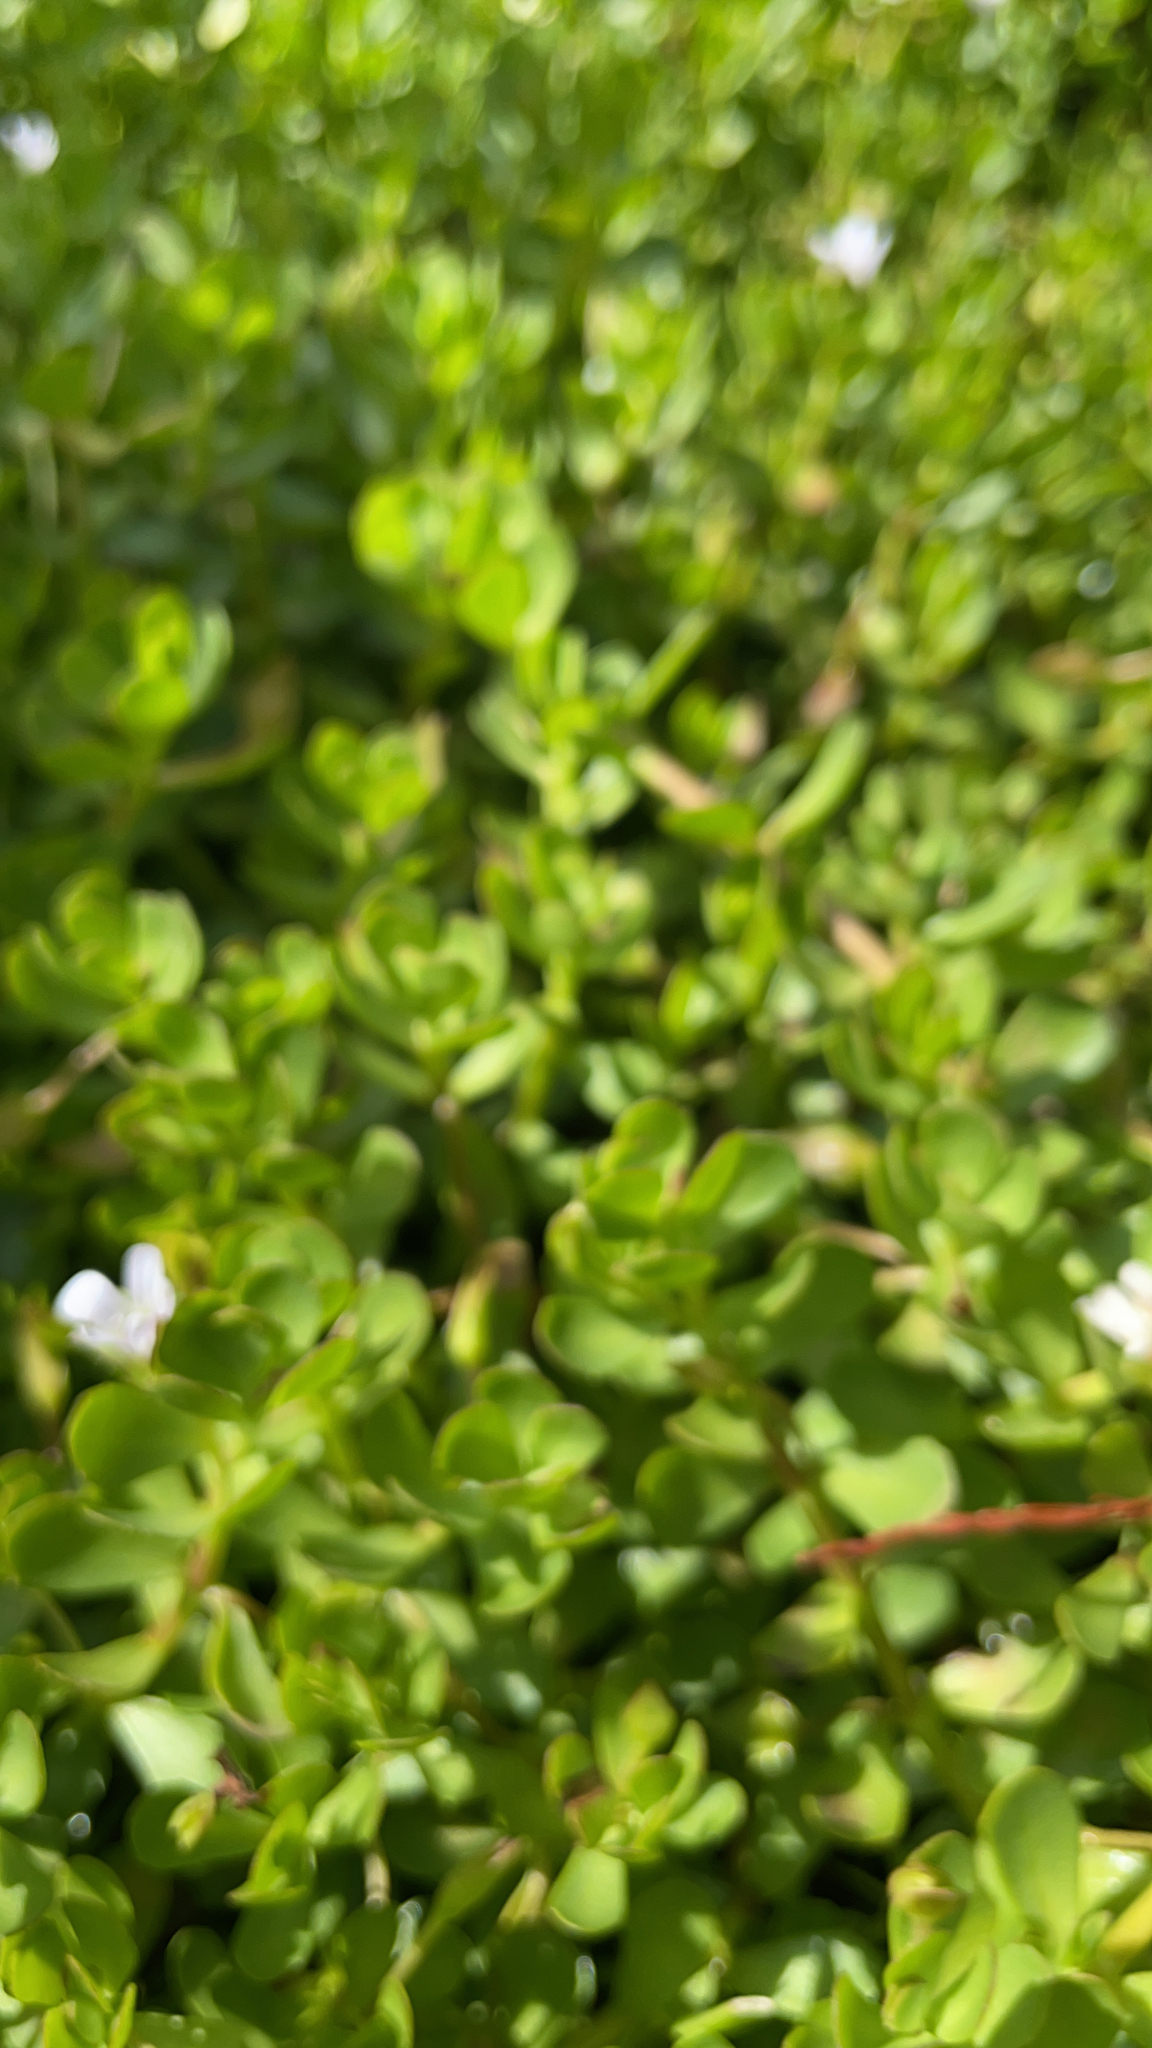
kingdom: Plantae
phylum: Tracheophyta
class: Magnoliopsida
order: Lamiales
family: Plantaginaceae
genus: Bacopa
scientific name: Bacopa monnieri
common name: Indian-pennywort
